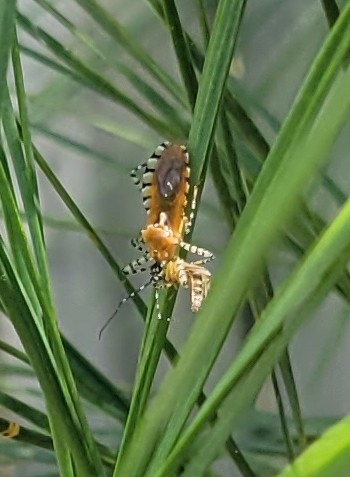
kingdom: Animalia
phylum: Arthropoda
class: Insecta
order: Hemiptera
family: Reduviidae
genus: Pselliopus
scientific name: Pselliopus cinctus
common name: Ringed assassin bug
